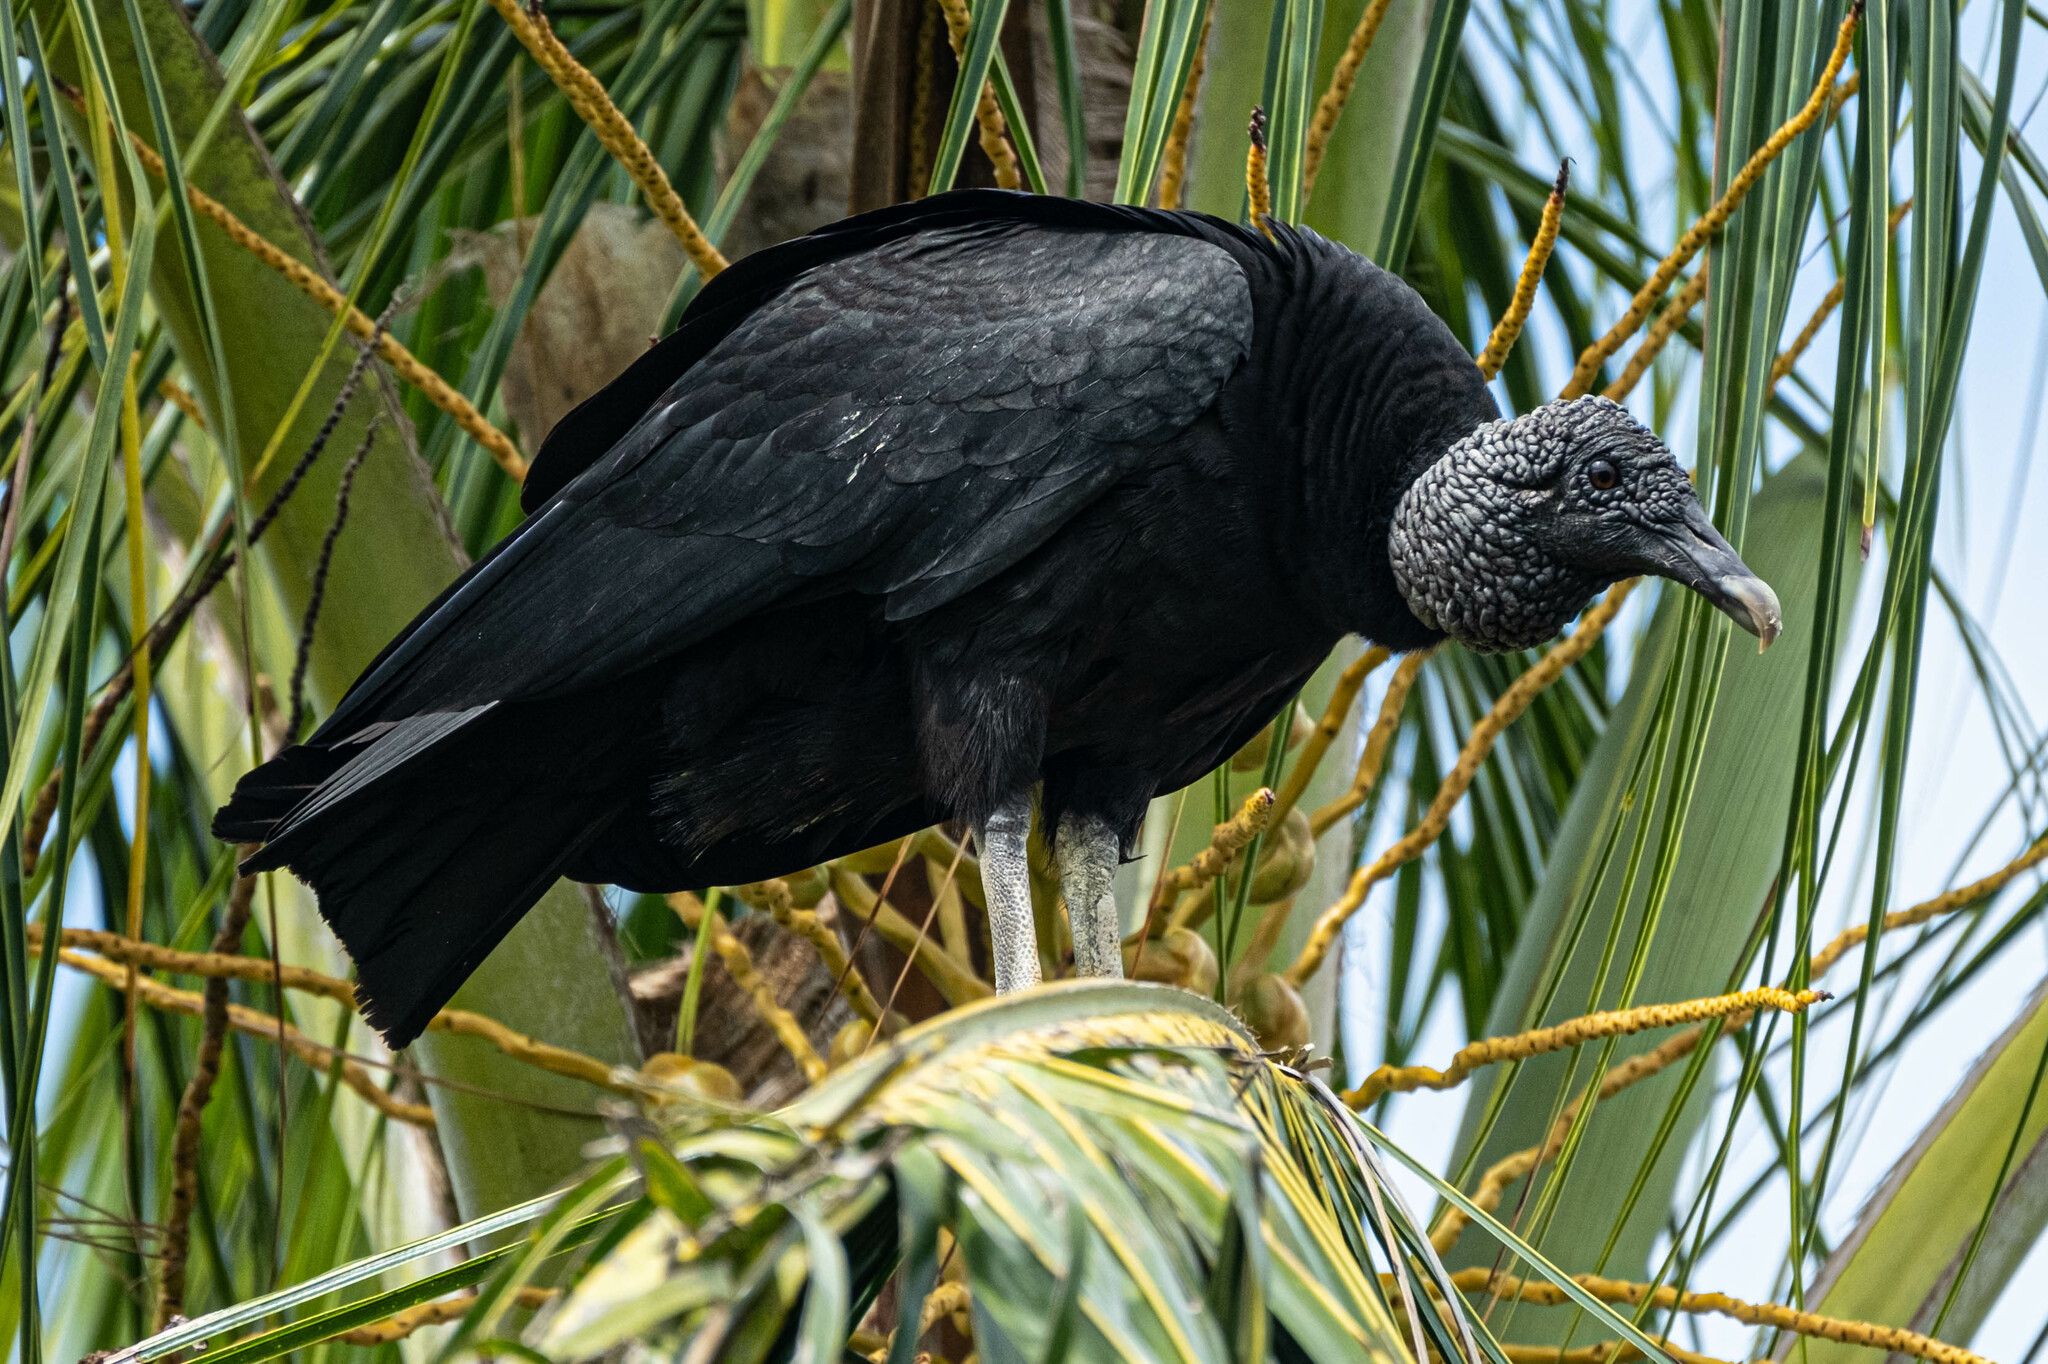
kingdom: Animalia
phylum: Chordata
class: Aves
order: Accipitriformes
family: Cathartidae
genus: Coragyps
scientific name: Coragyps atratus
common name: Black vulture
